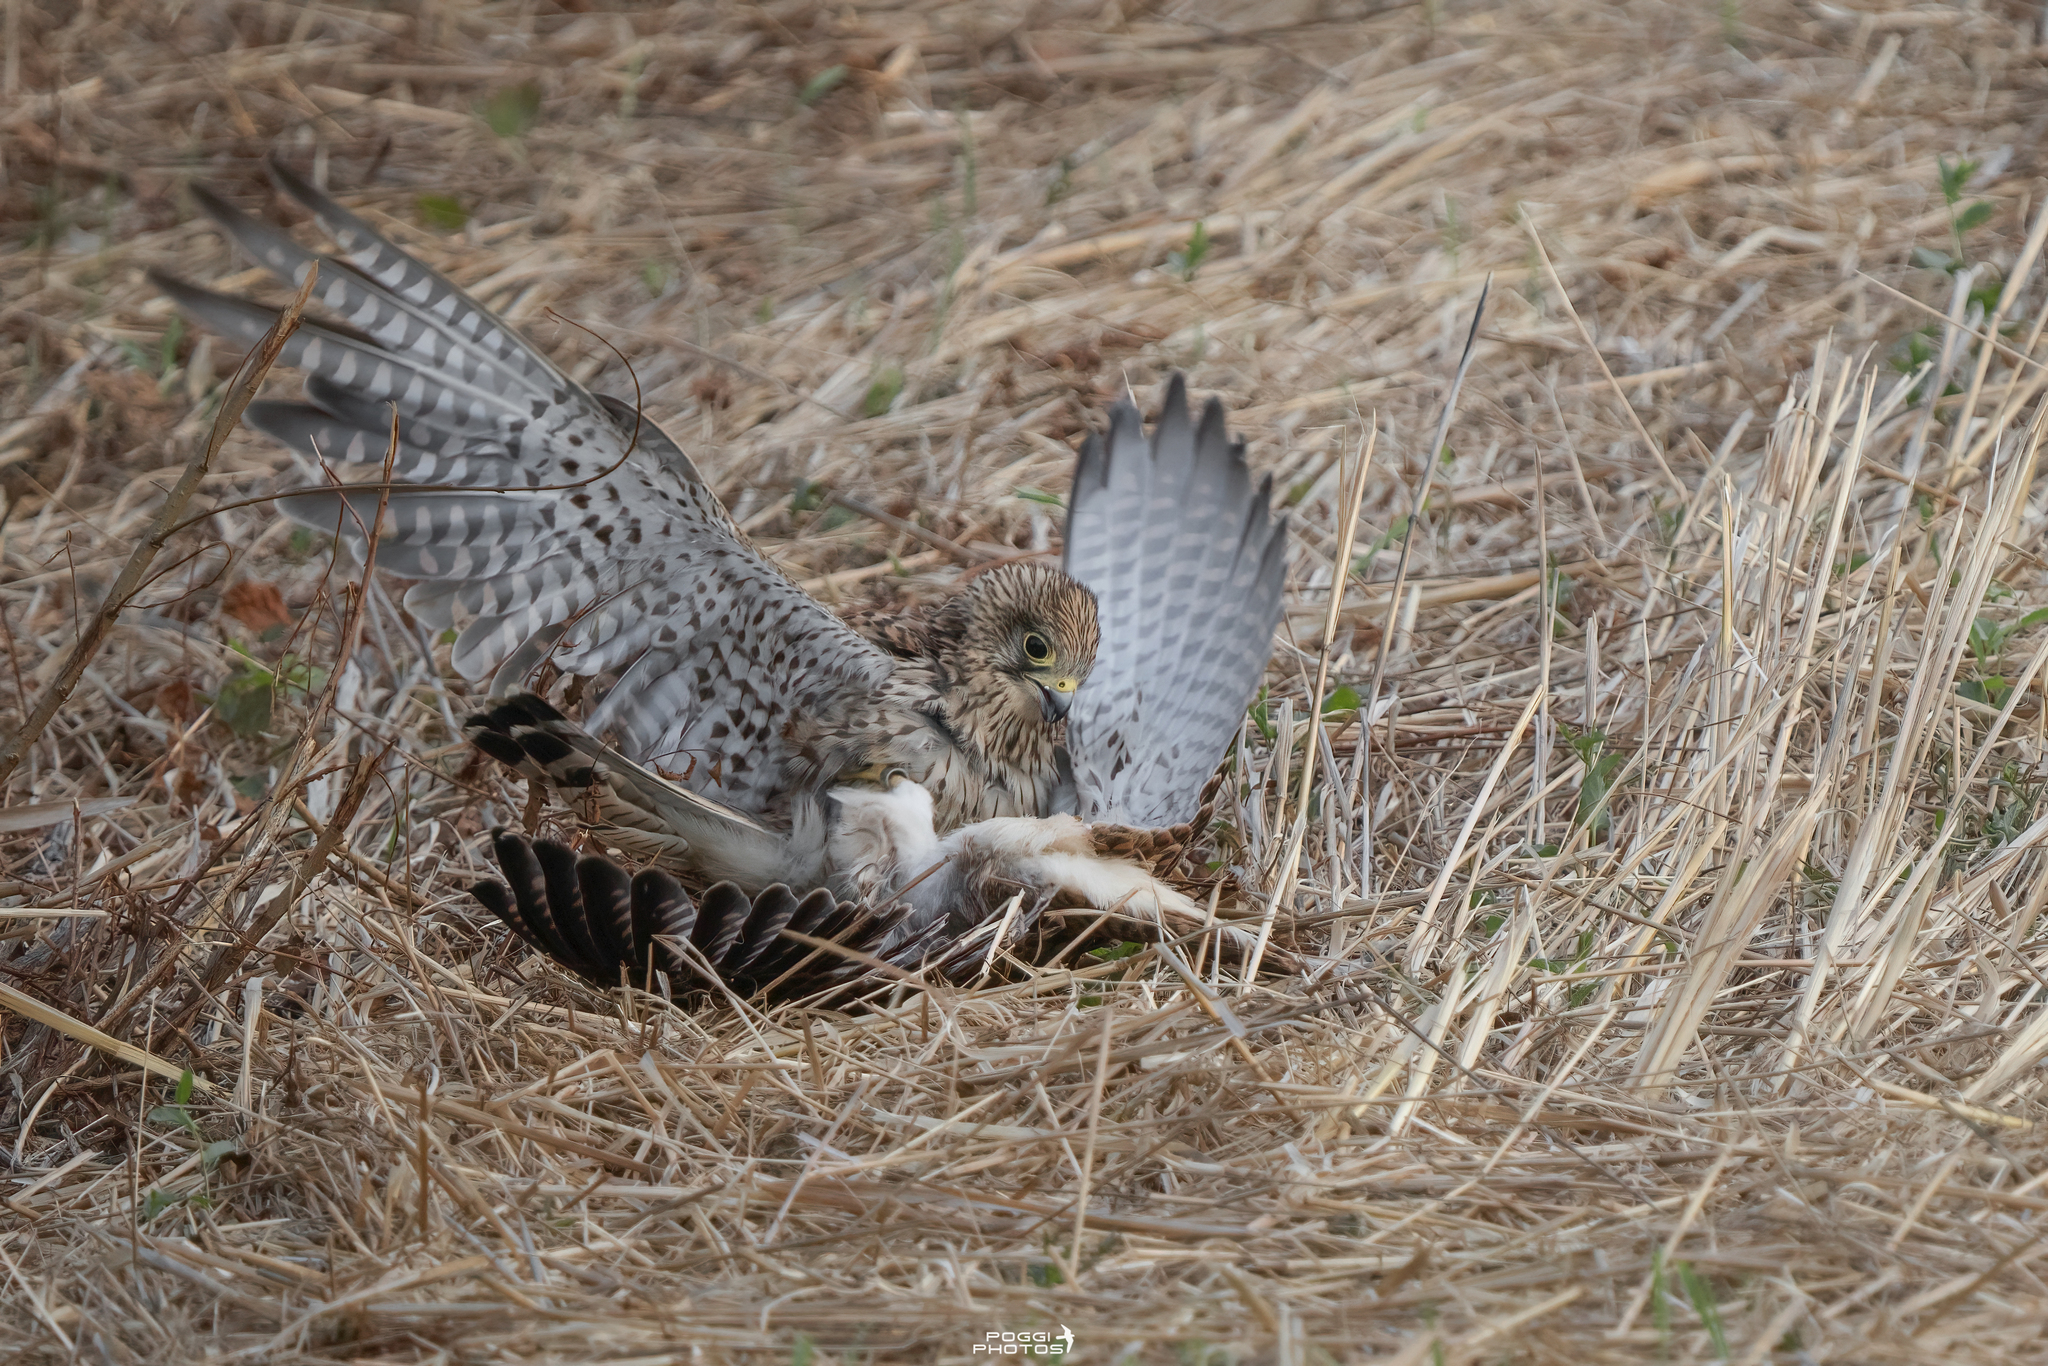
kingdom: Animalia
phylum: Chordata
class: Aves
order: Falconiformes
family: Falconidae
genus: Falco
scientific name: Falco tinnunculus
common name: Common kestrel
